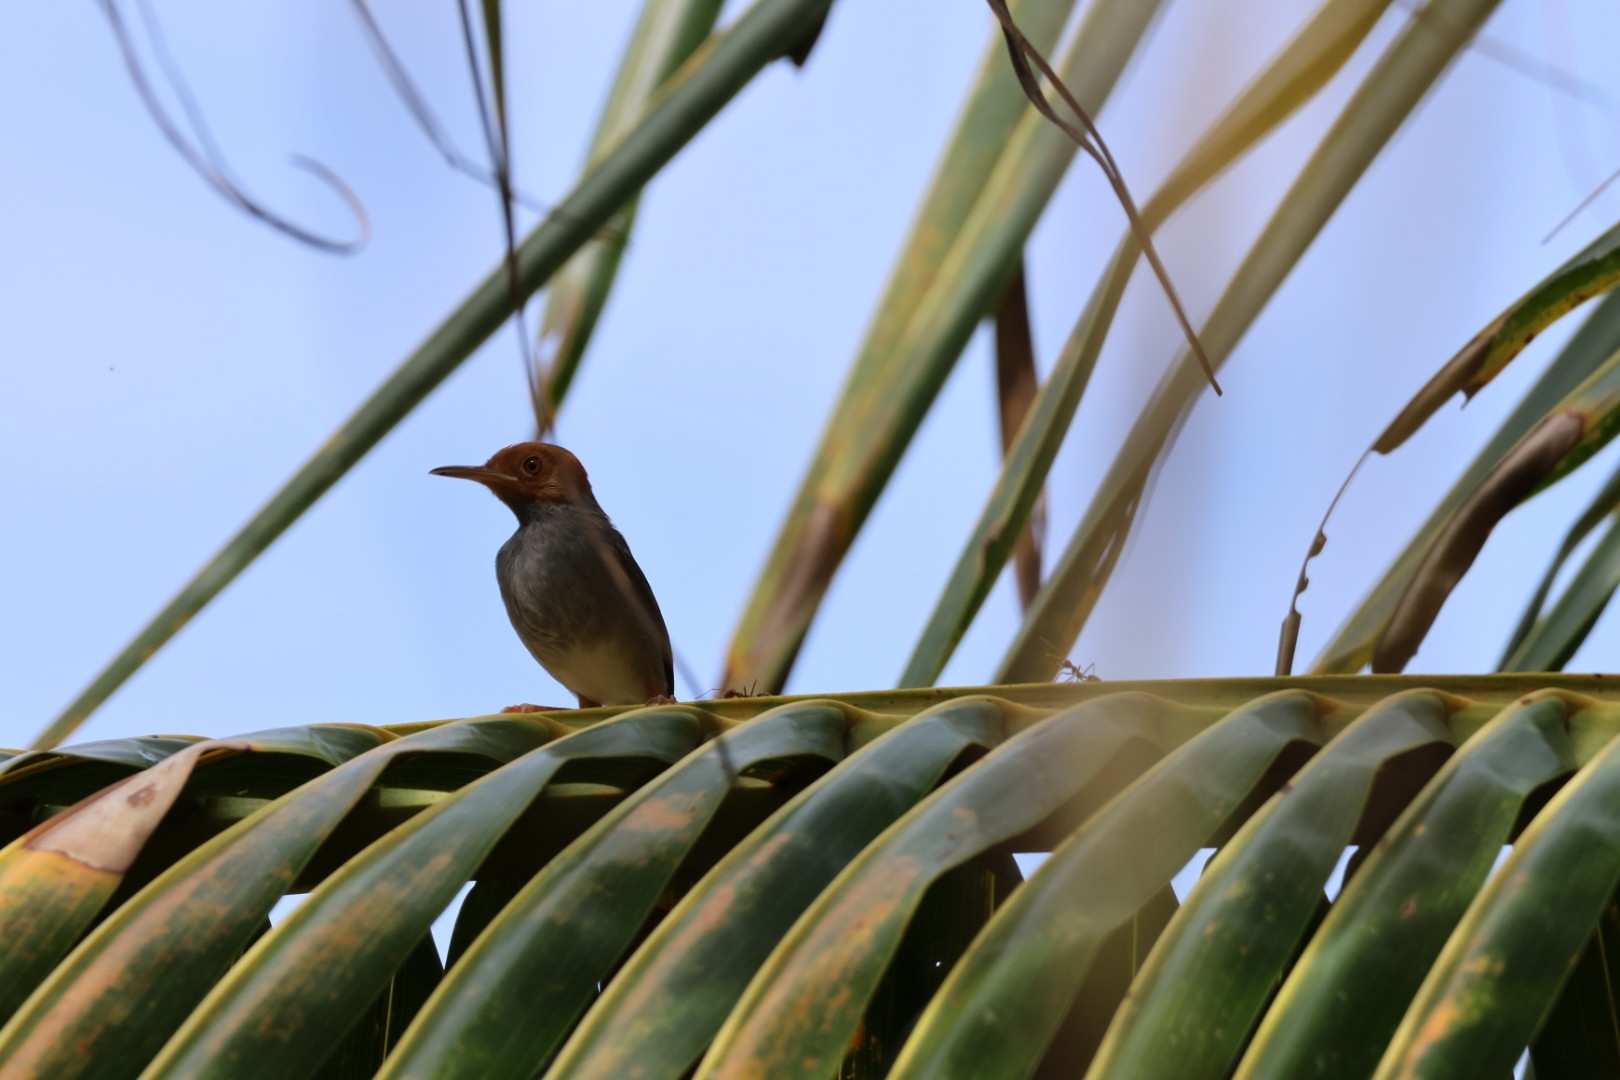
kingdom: Animalia
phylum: Chordata
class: Aves
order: Passeriformes
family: Cisticolidae
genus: Orthotomus
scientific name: Orthotomus ruficeps
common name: Ashy tailorbird
